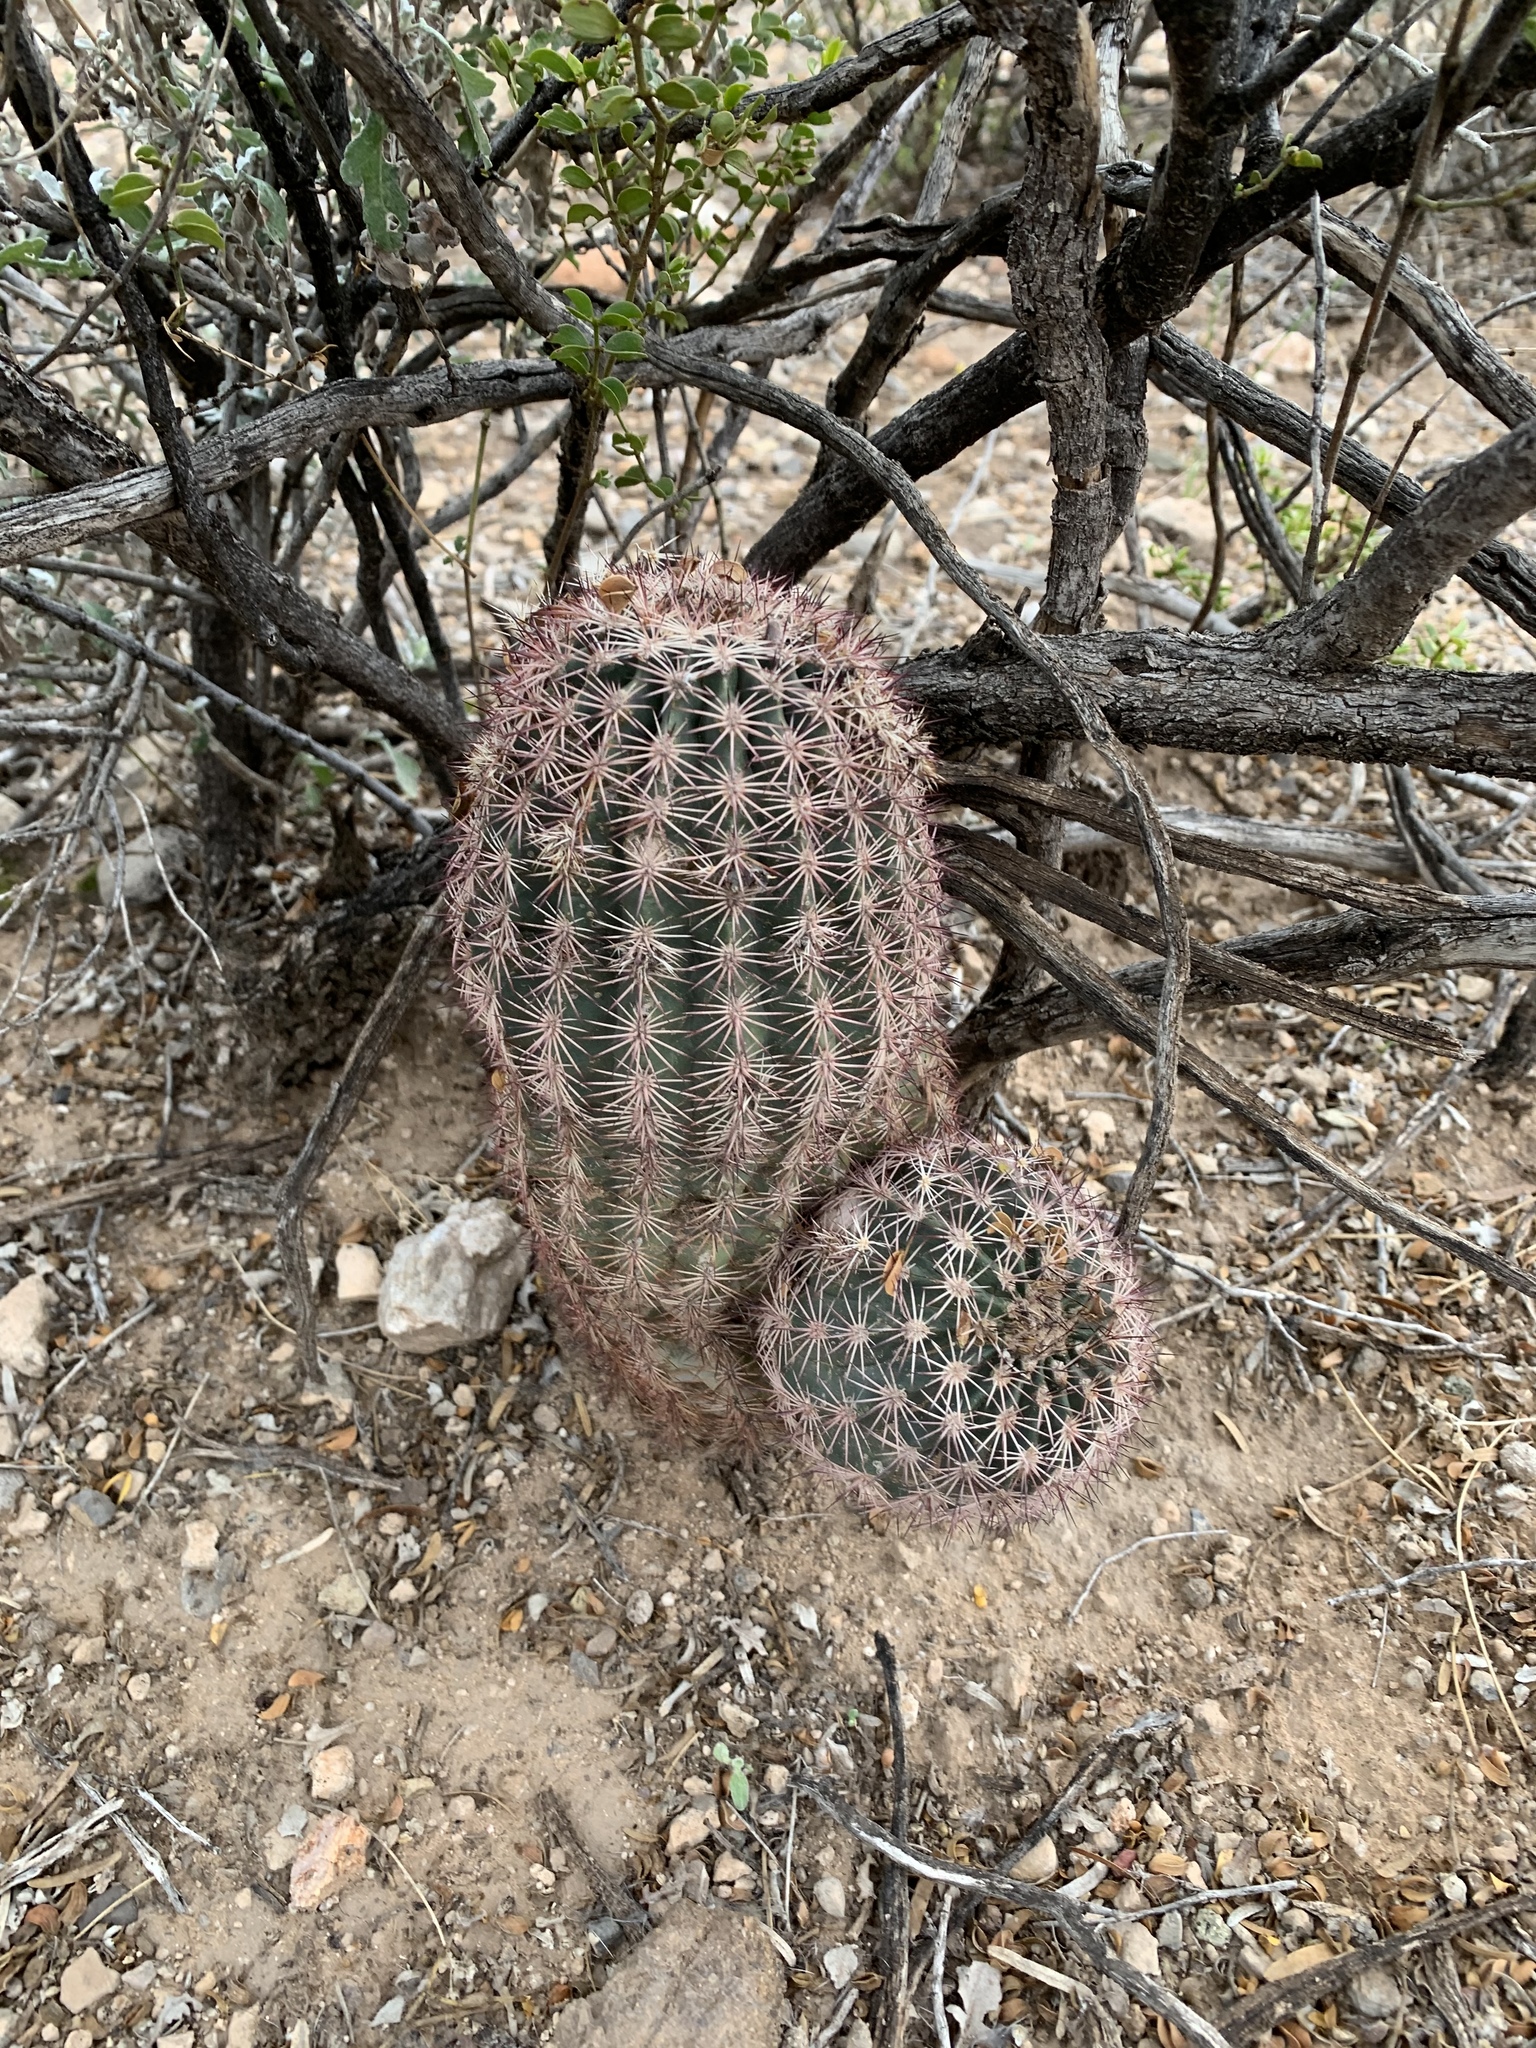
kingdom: Plantae
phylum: Tracheophyta
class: Magnoliopsida
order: Caryophyllales
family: Cactaceae
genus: Echinocereus
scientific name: Echinocereus dasyacanthus
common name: Spiny hedgehog cactus
